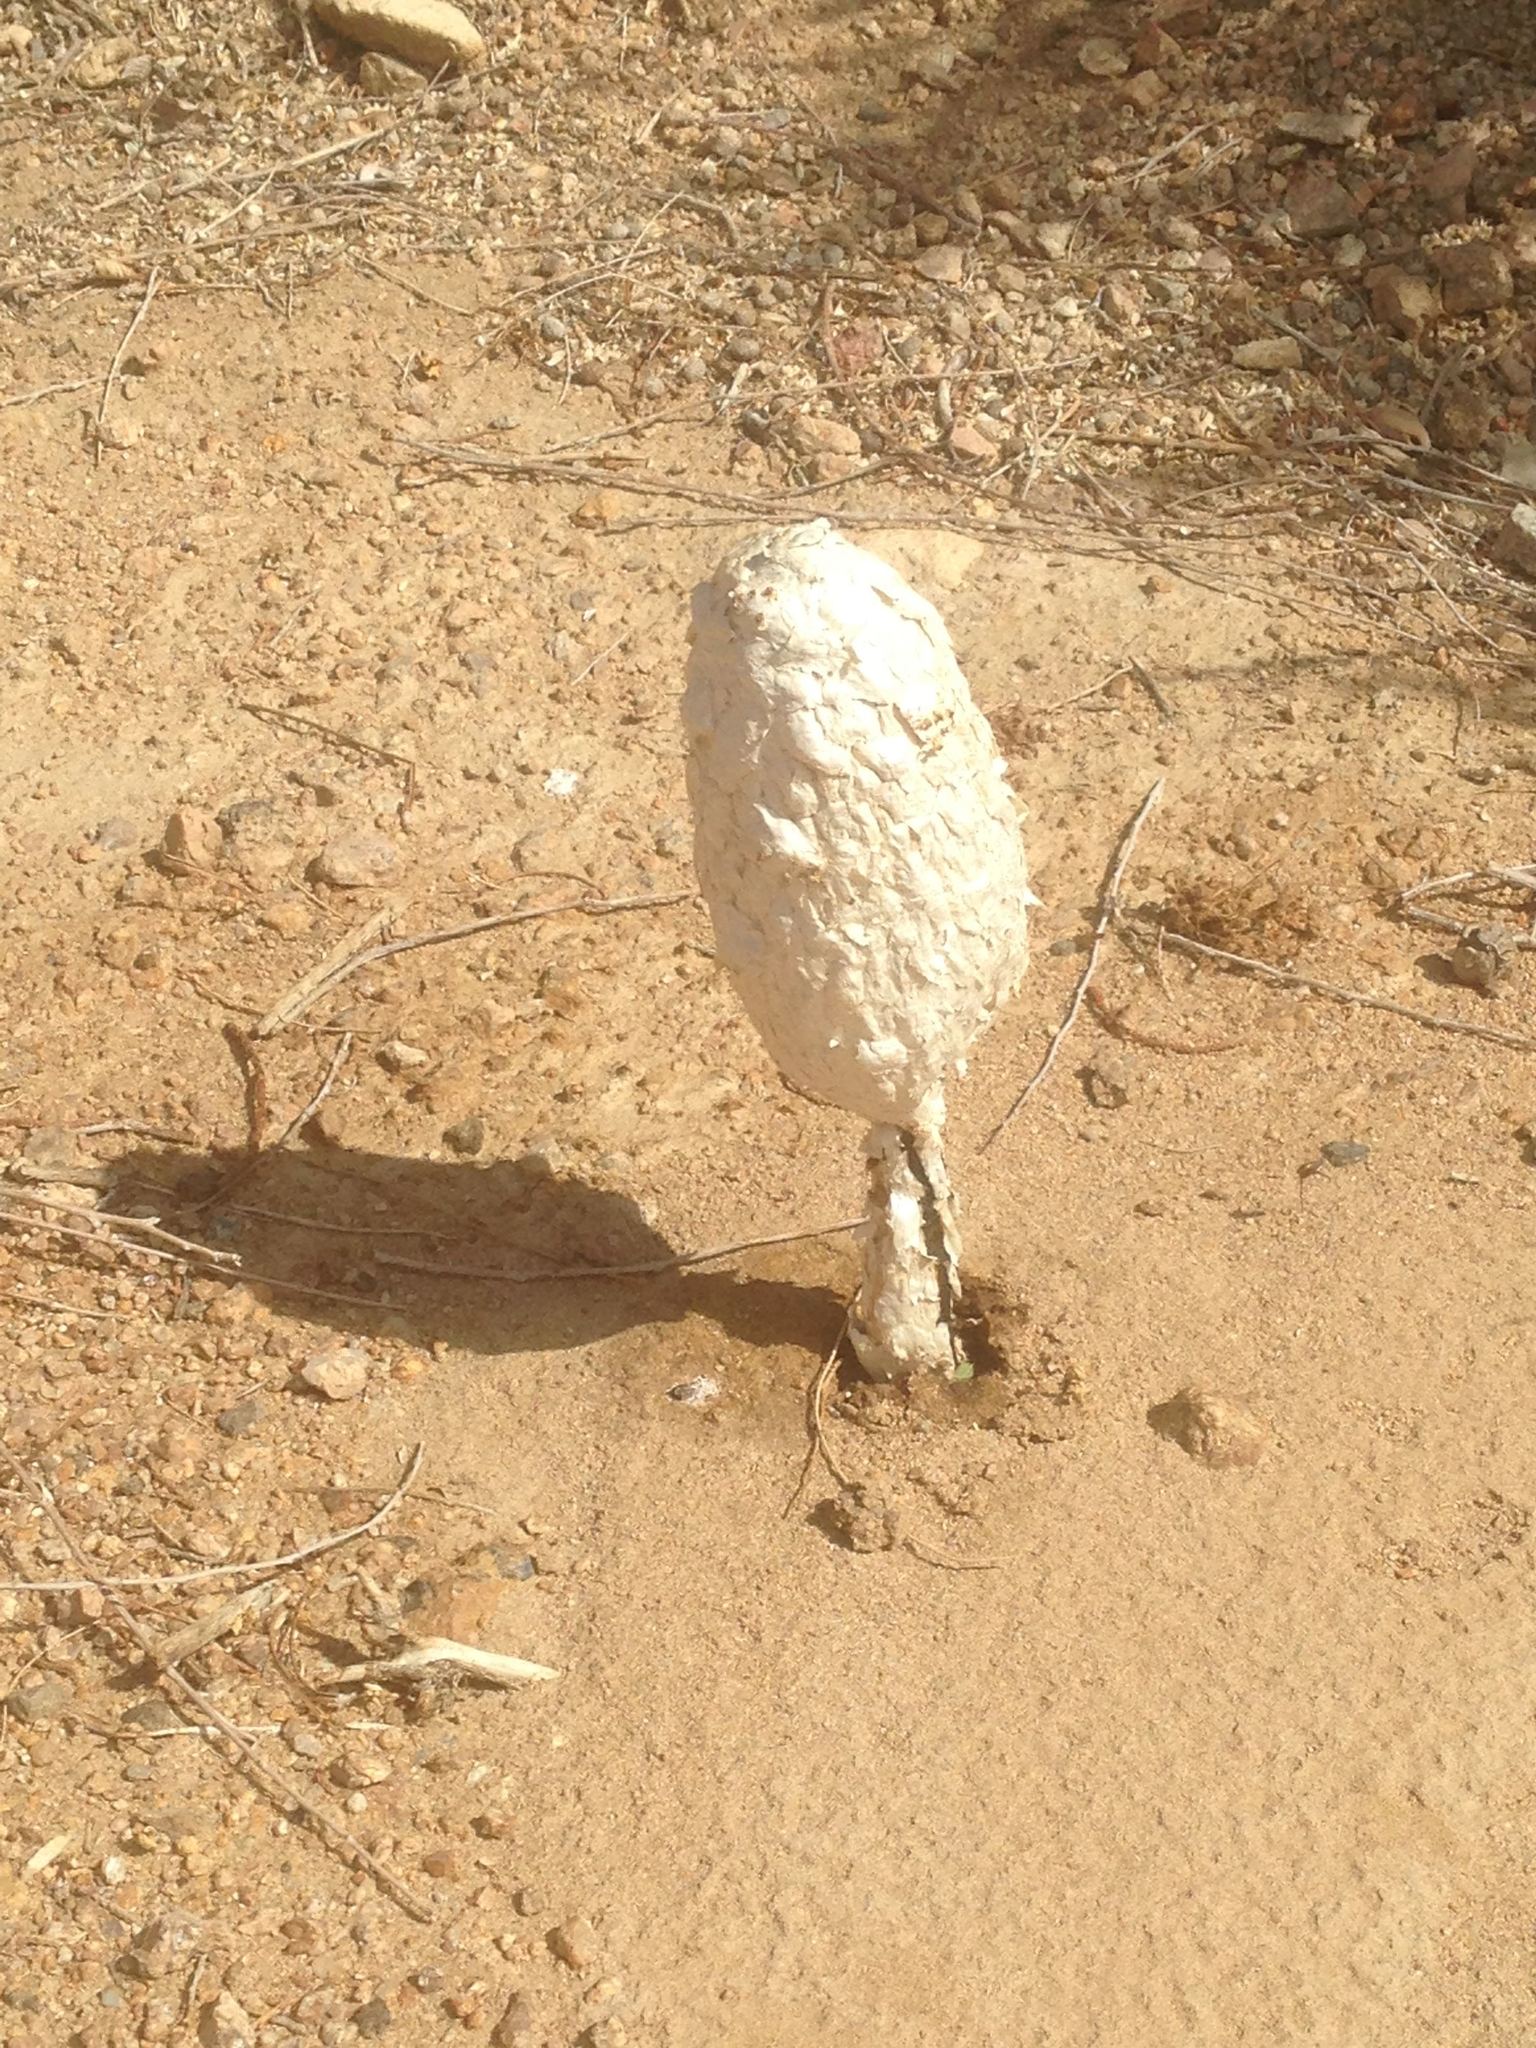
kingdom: Fungi
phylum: Basidiomycota
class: Agaricomycetes
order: Agaricales
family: Agaricaceae
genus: Podaxis
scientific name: Podaxis pistillaris
